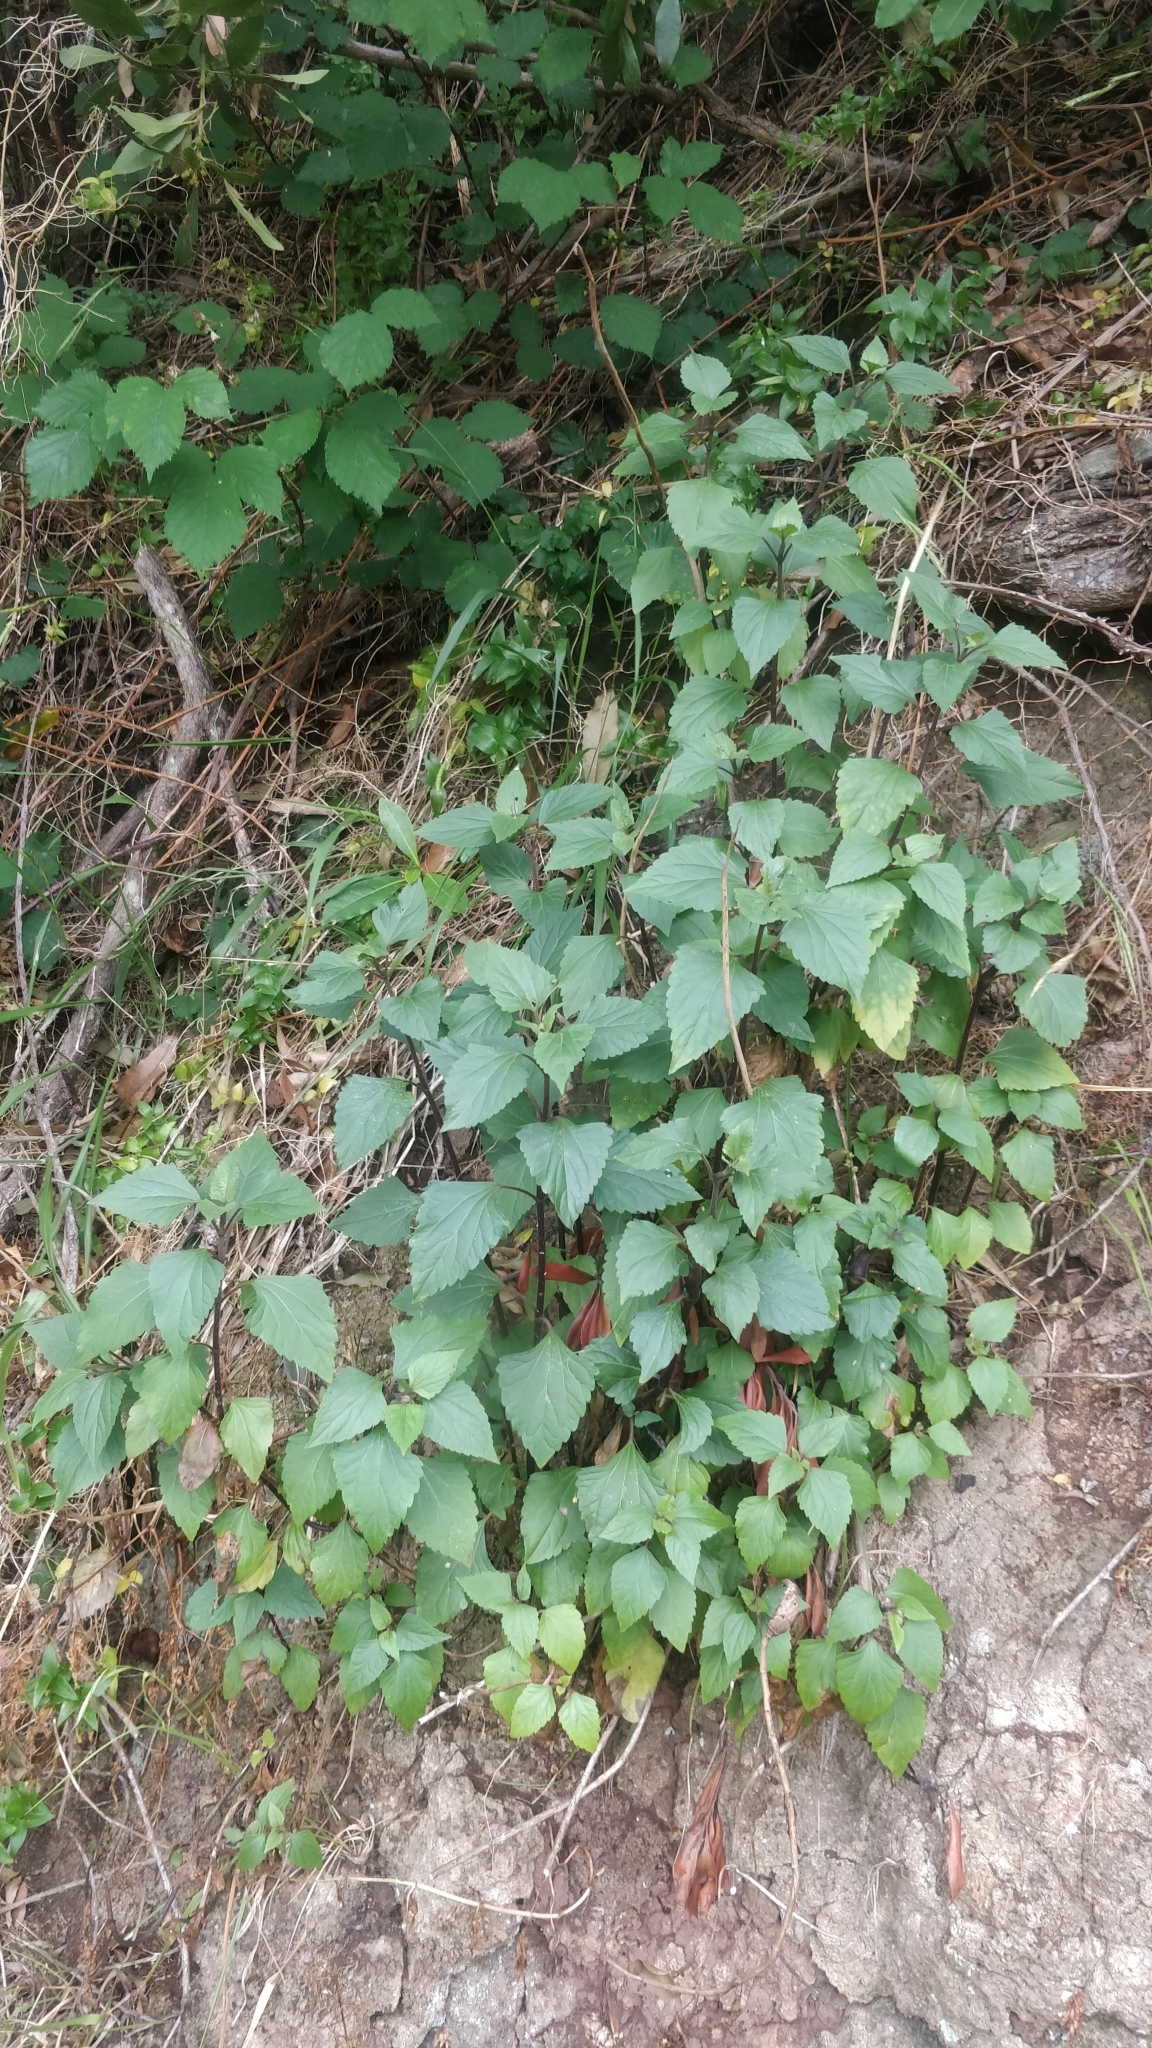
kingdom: Plantae
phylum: Tracheophyta
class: Magnoliopsida
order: Asterales
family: Asteraceae
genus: Ageratina
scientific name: Ageratina adenophora
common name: Sticky snakeroot
